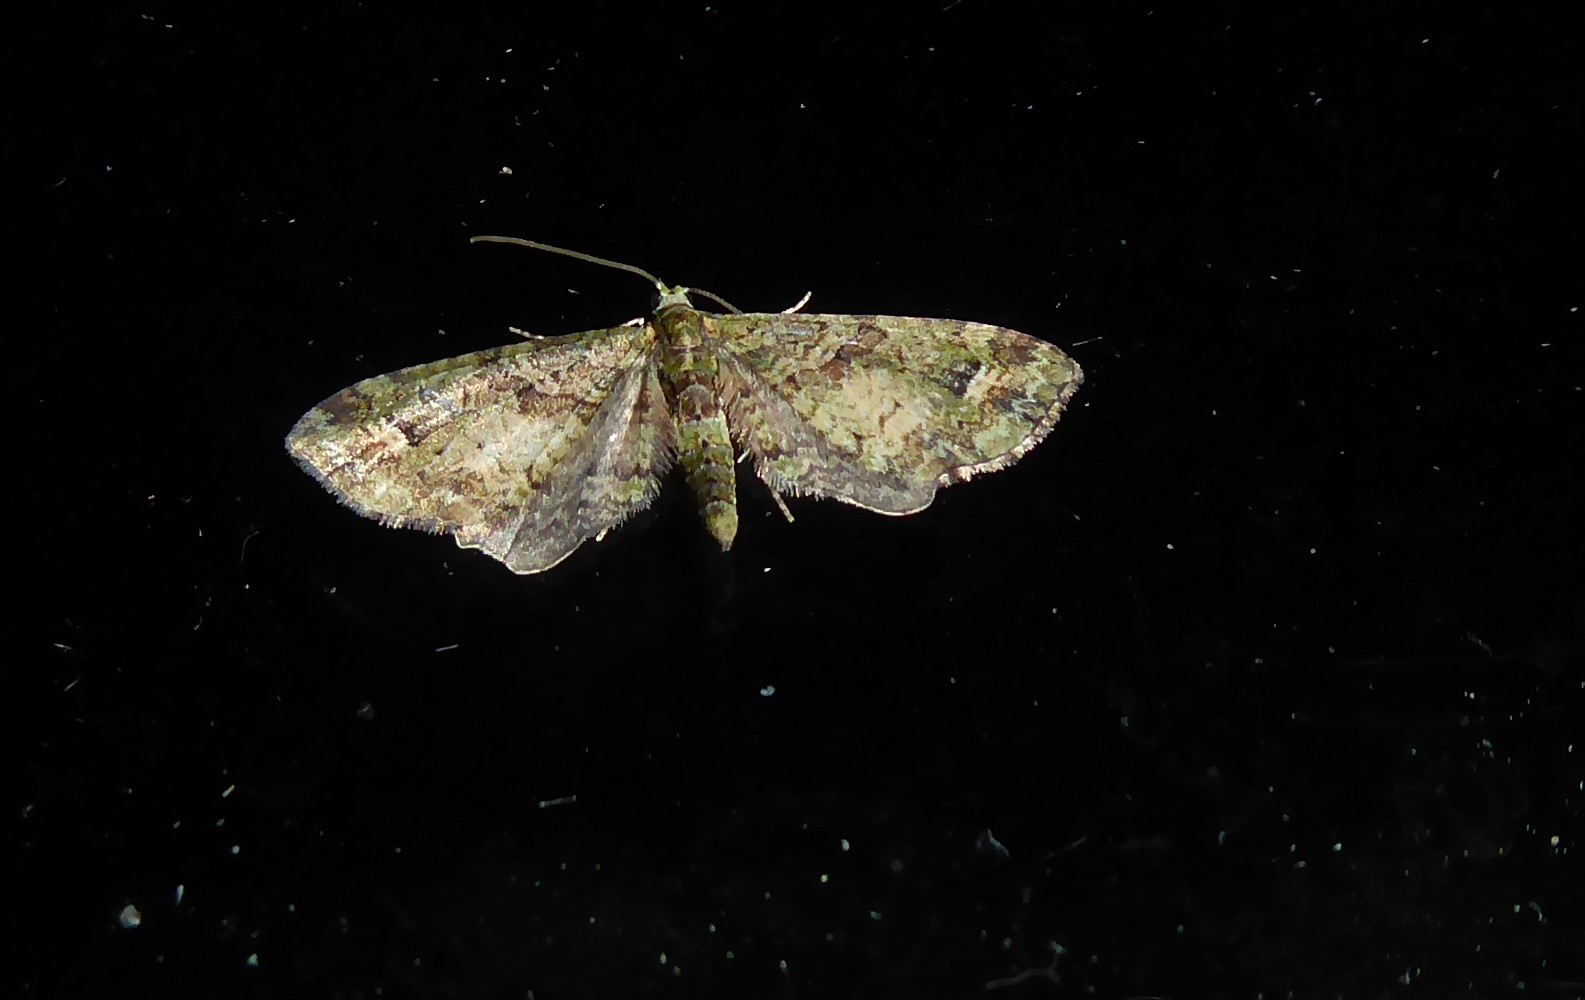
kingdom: Animalia
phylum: Arthropoda
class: Insecta
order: Lepidoptera
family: Geometridae
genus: Idaea
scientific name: Idaea mutanda
